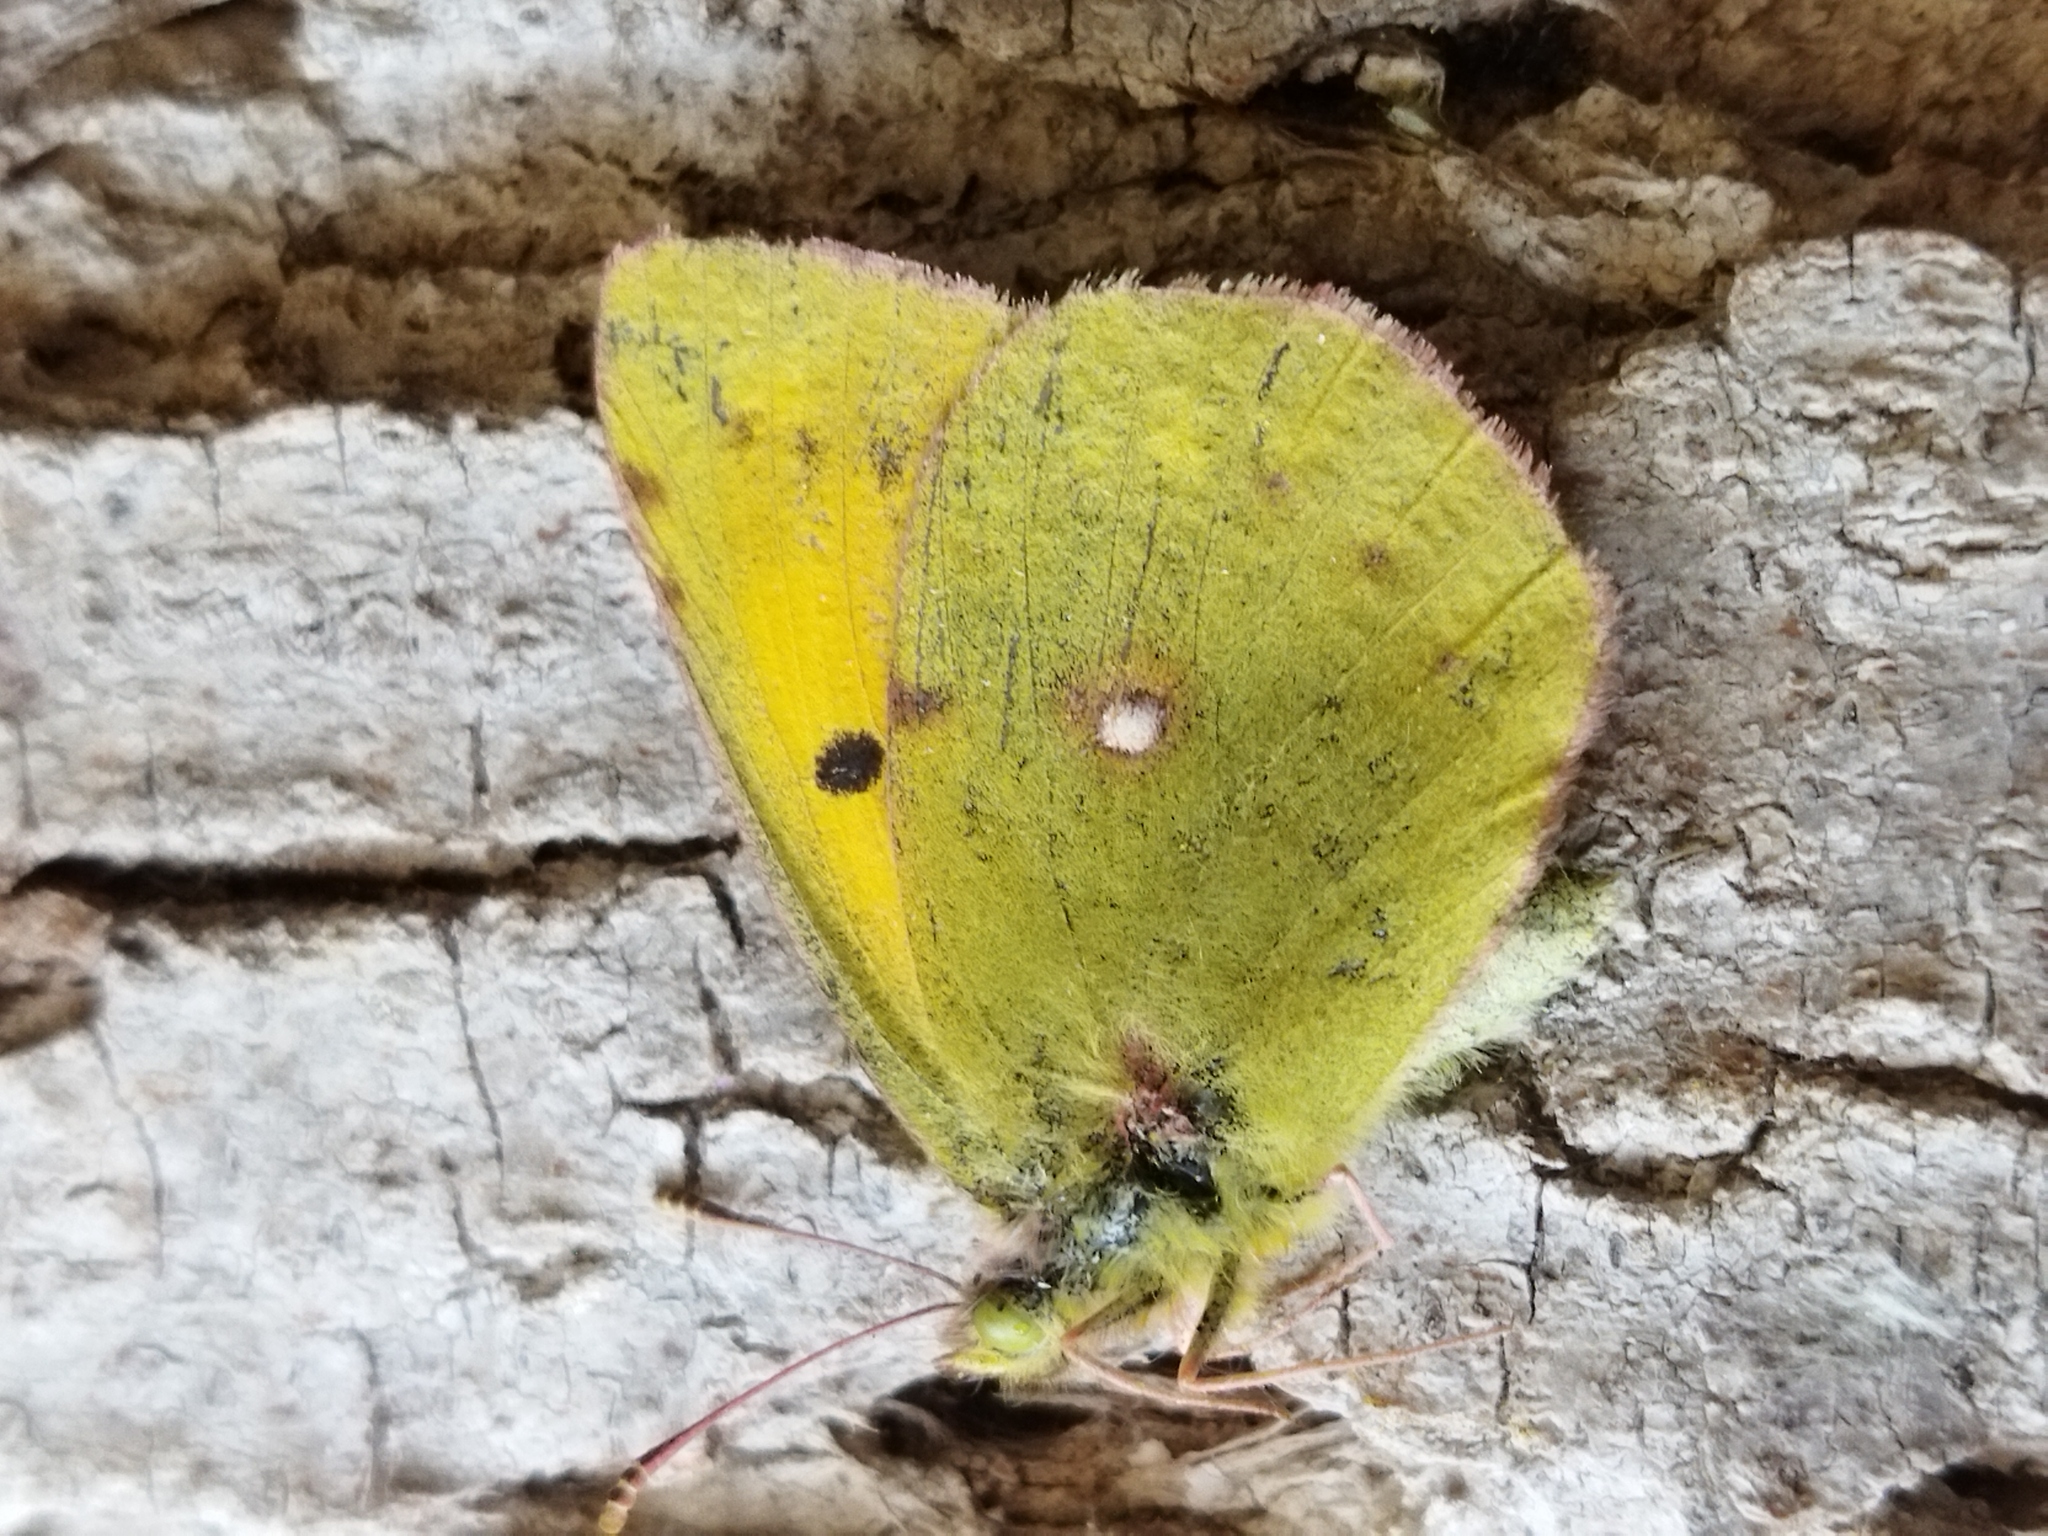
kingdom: Animalia
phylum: Arthropoda
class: Insecta
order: Lepidoptera
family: Pieridae
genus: Colias
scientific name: Colias croceus
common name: Clouded yellow
